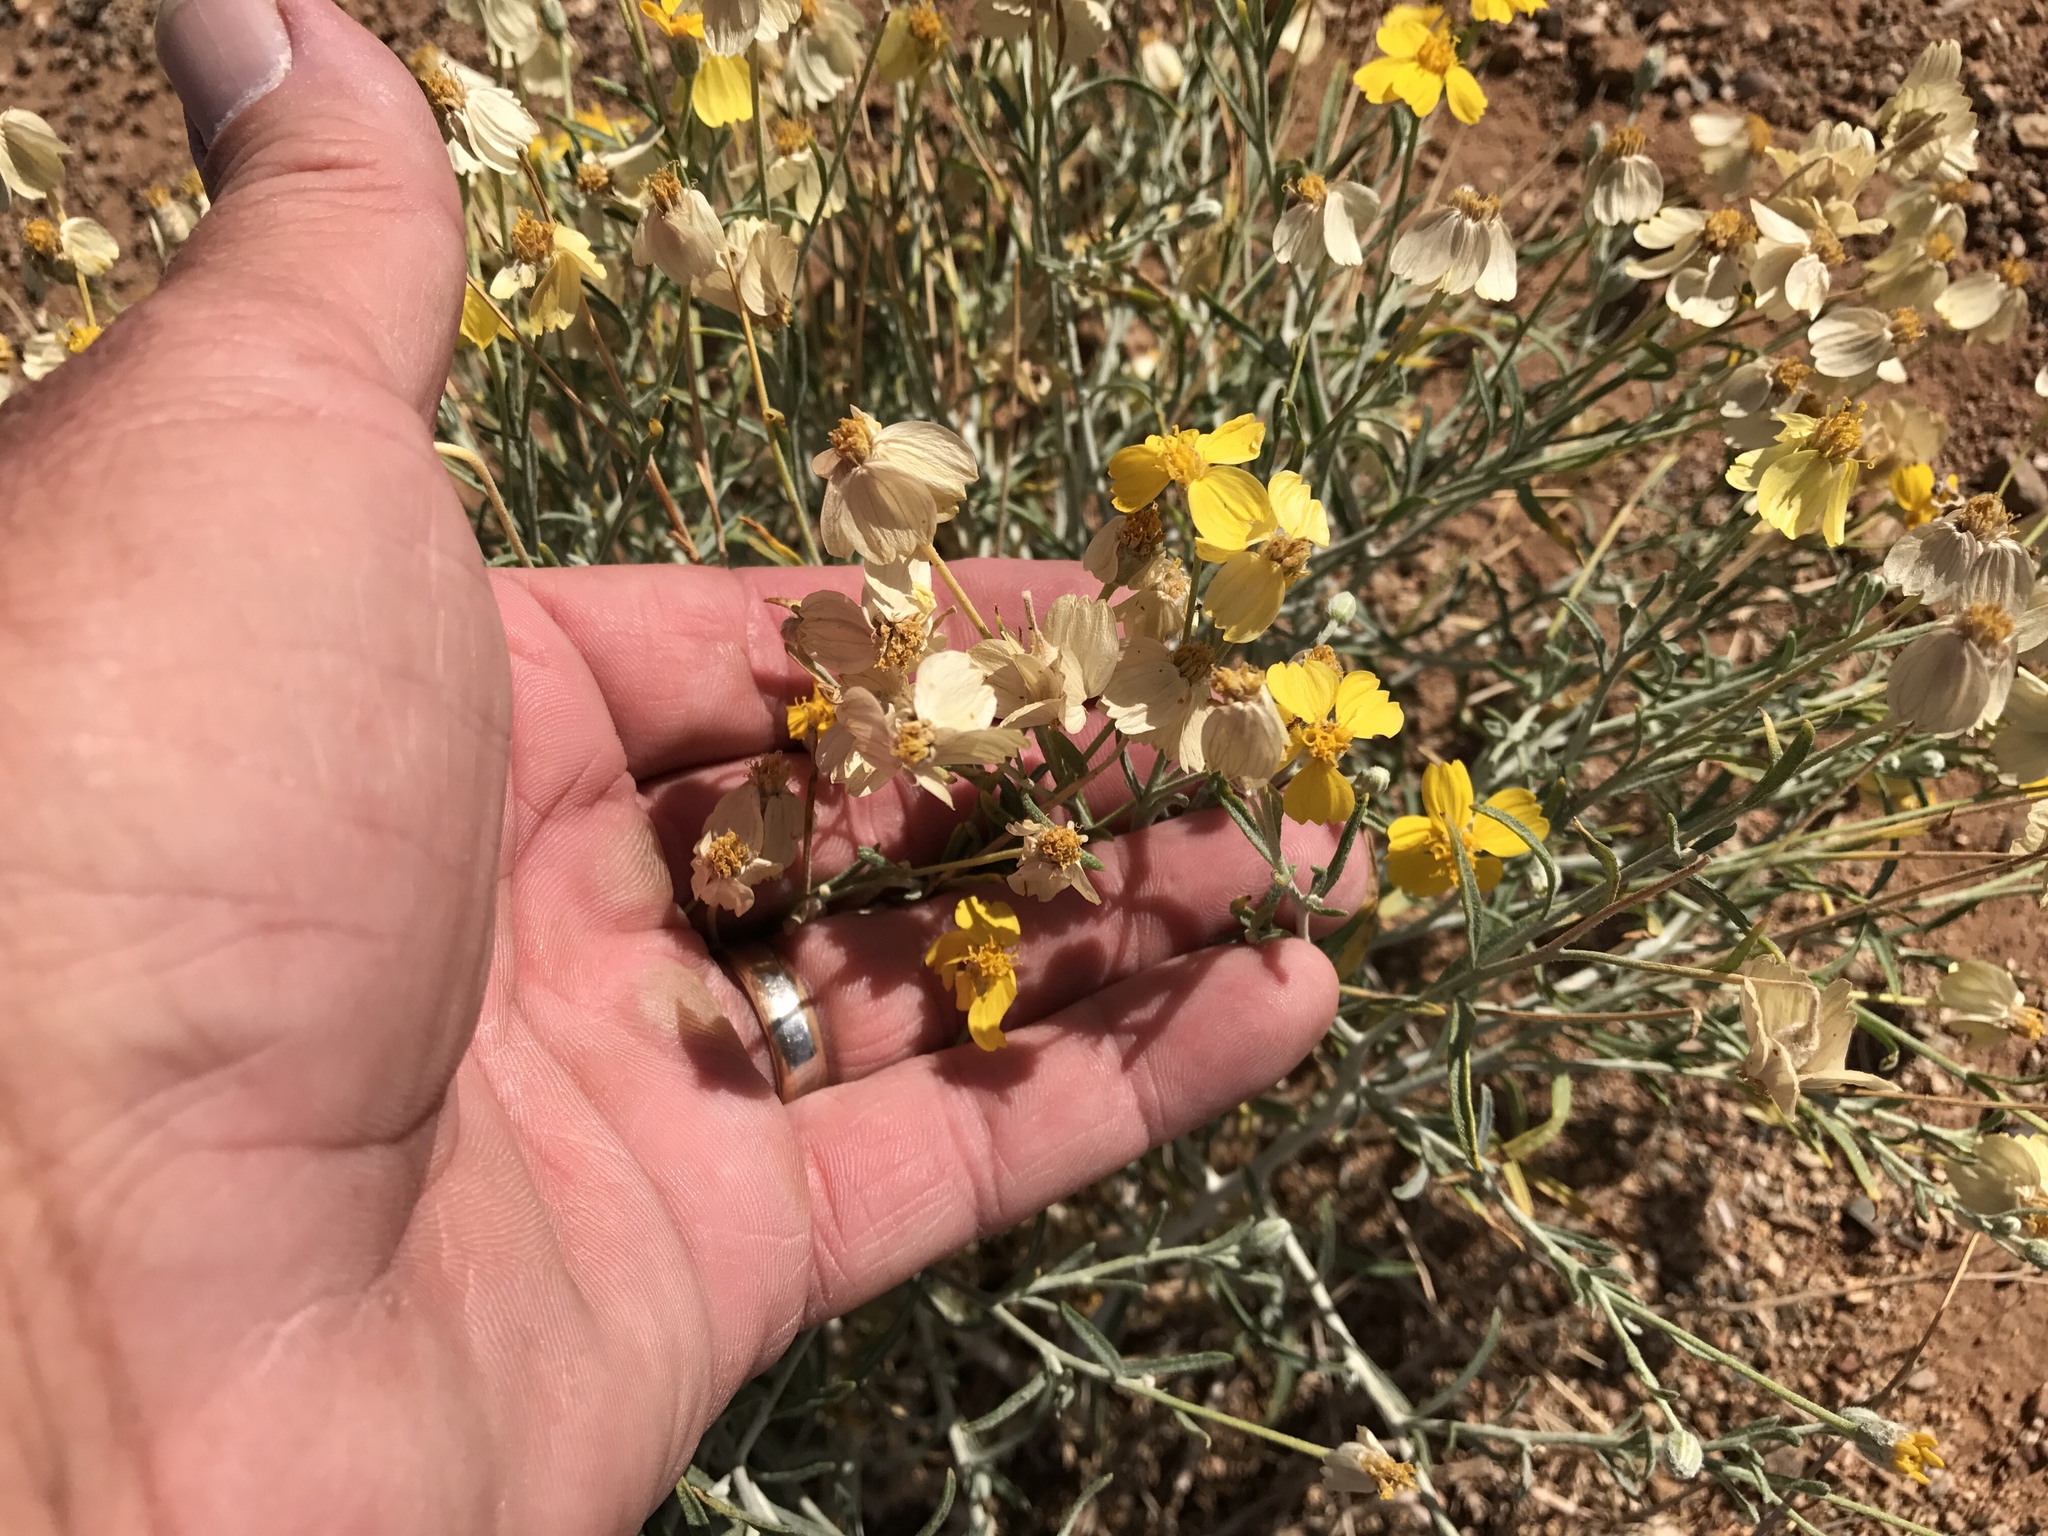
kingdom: Plantae
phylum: Tracheophyta
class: Magnoliopsida
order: Asterales
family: Asteraceae
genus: Psilostrophe
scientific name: Psilostrophe cooperi
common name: White-stem paper-flower
